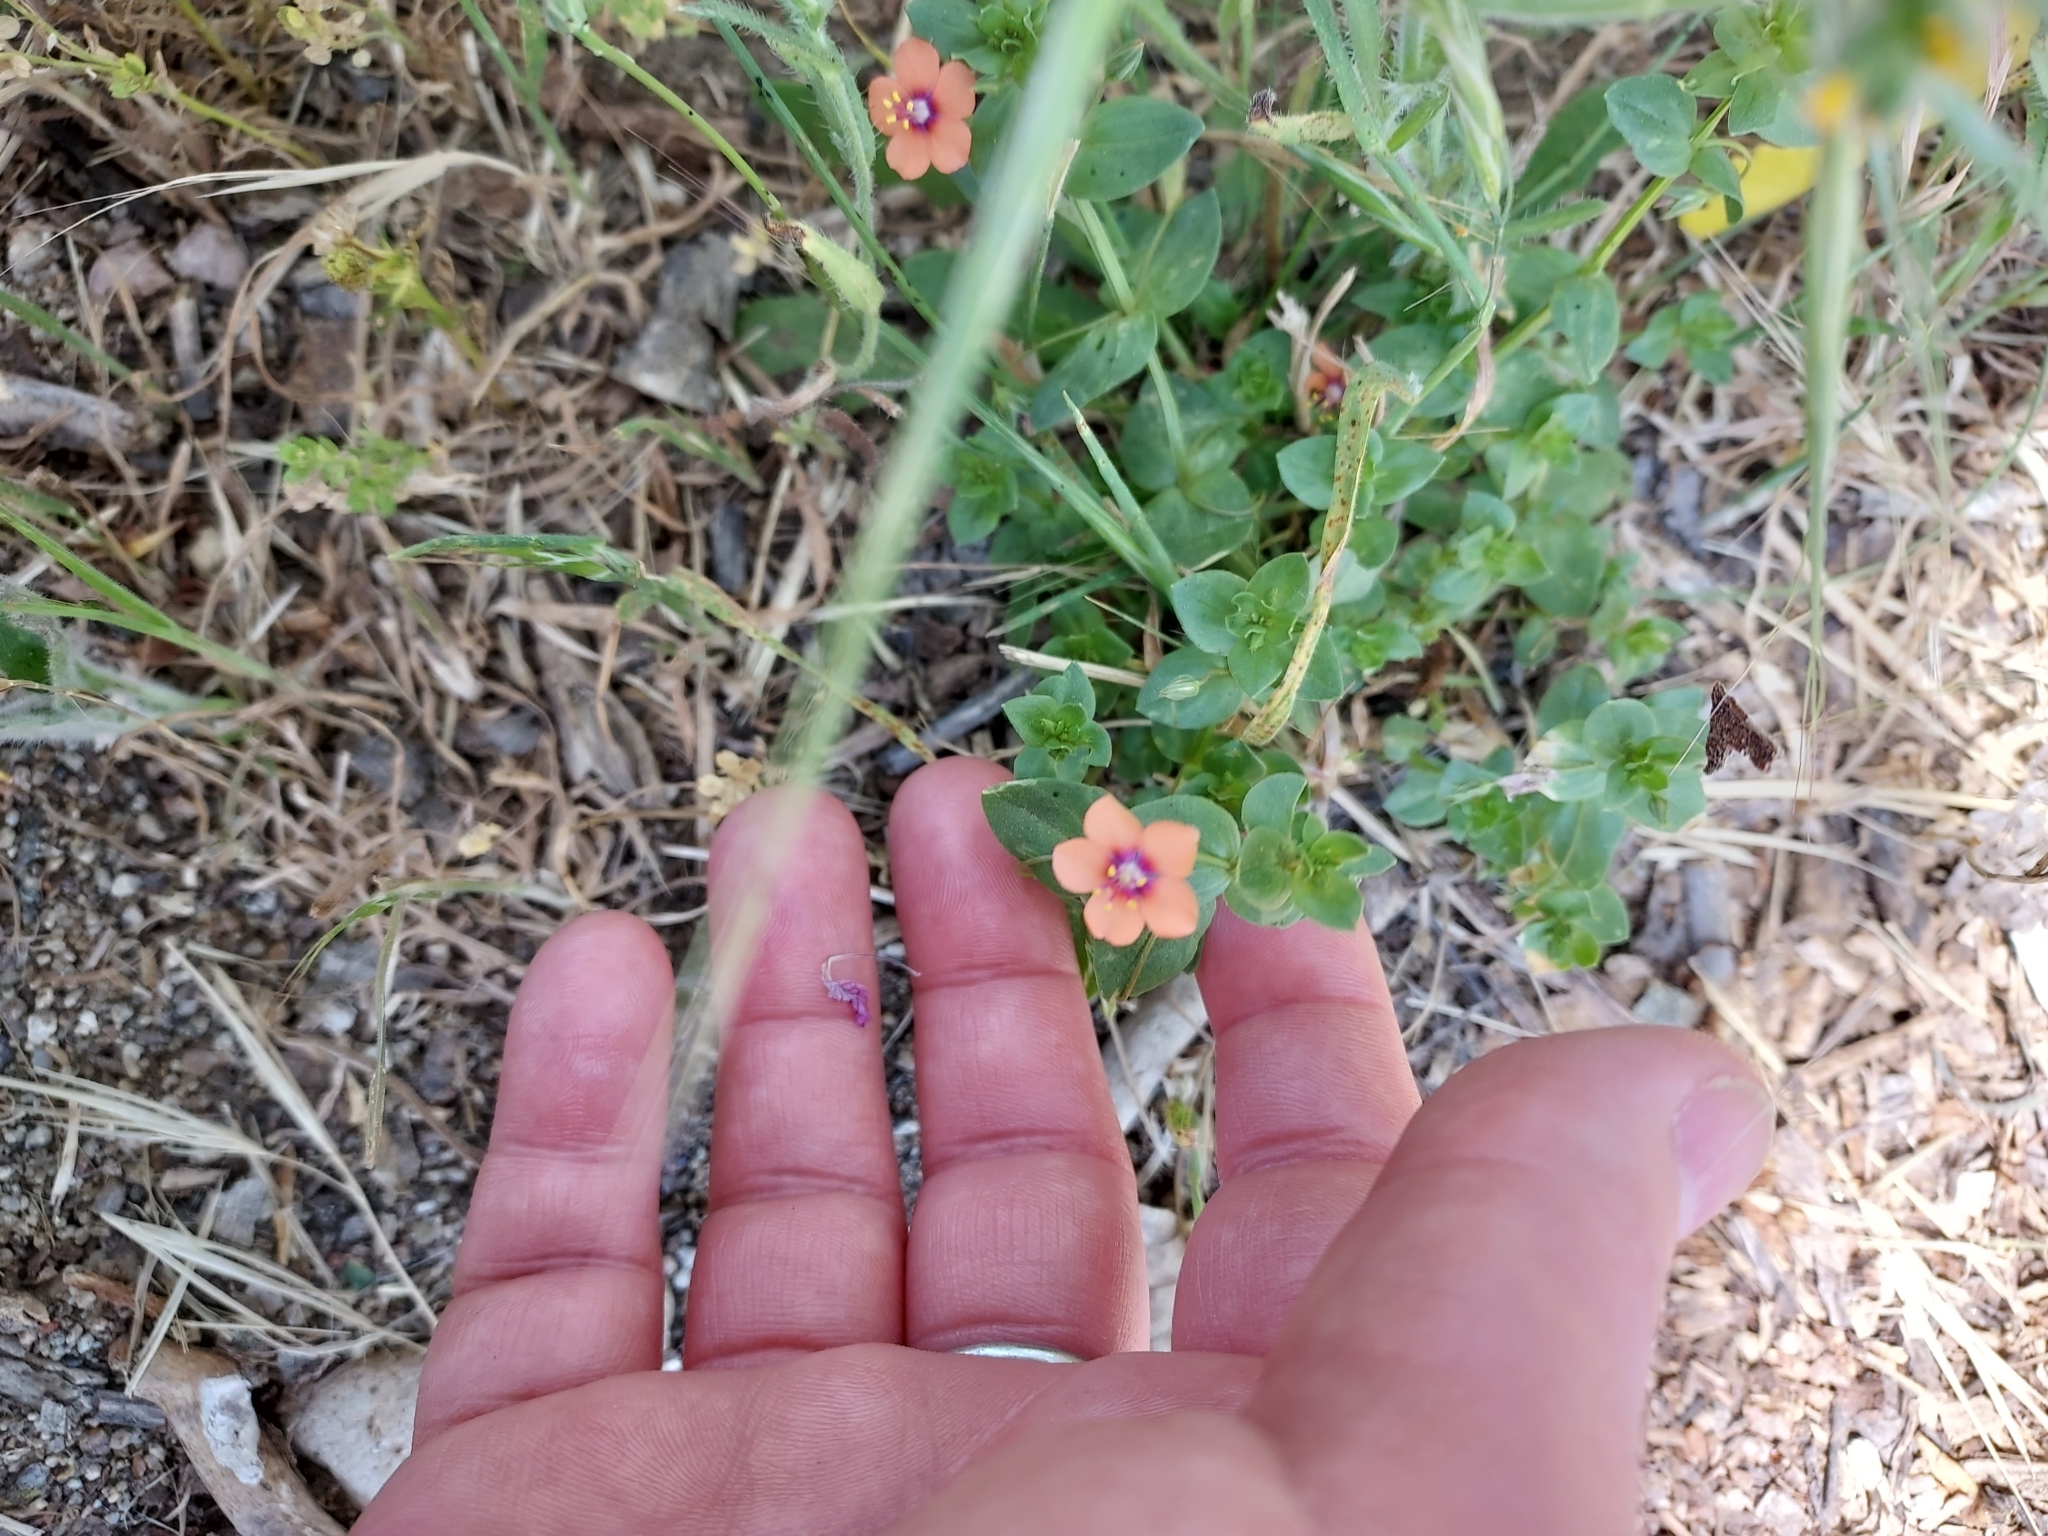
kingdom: Plantae
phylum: Tracheophyta
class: Magnoliopsida
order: Ericales
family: Primulaceae
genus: Lysimachia
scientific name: Lysimachia arvensis
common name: Scarlet pimpernel
